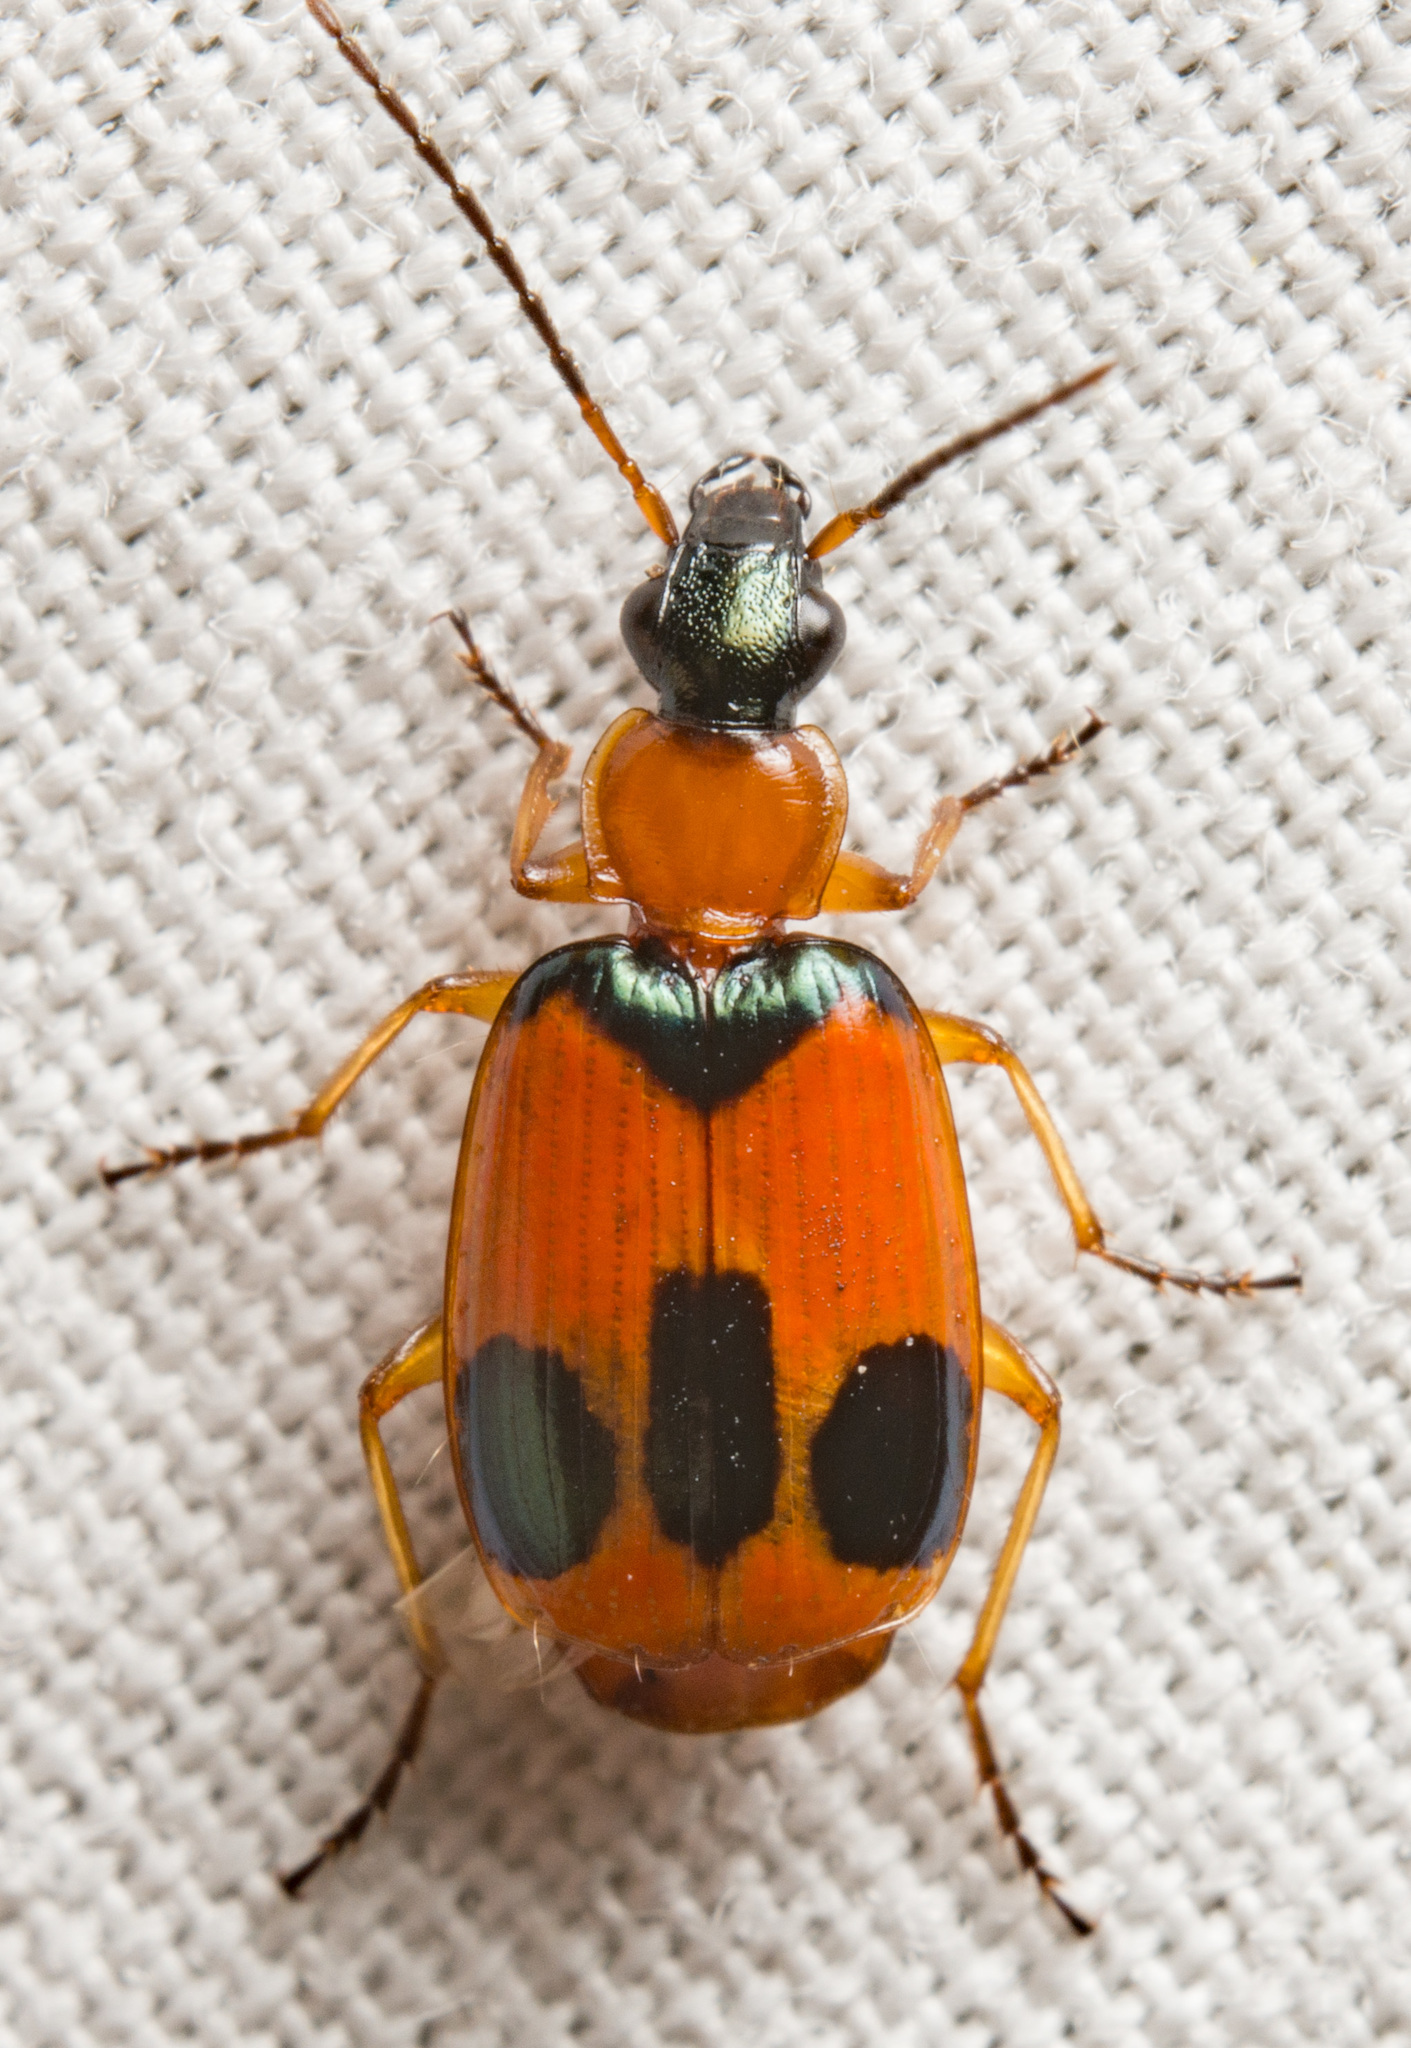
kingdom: Animalia
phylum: Arthropoda
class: Insecta
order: Coleoptera
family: Carabidae
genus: Lebia
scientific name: Lebia pulchella
